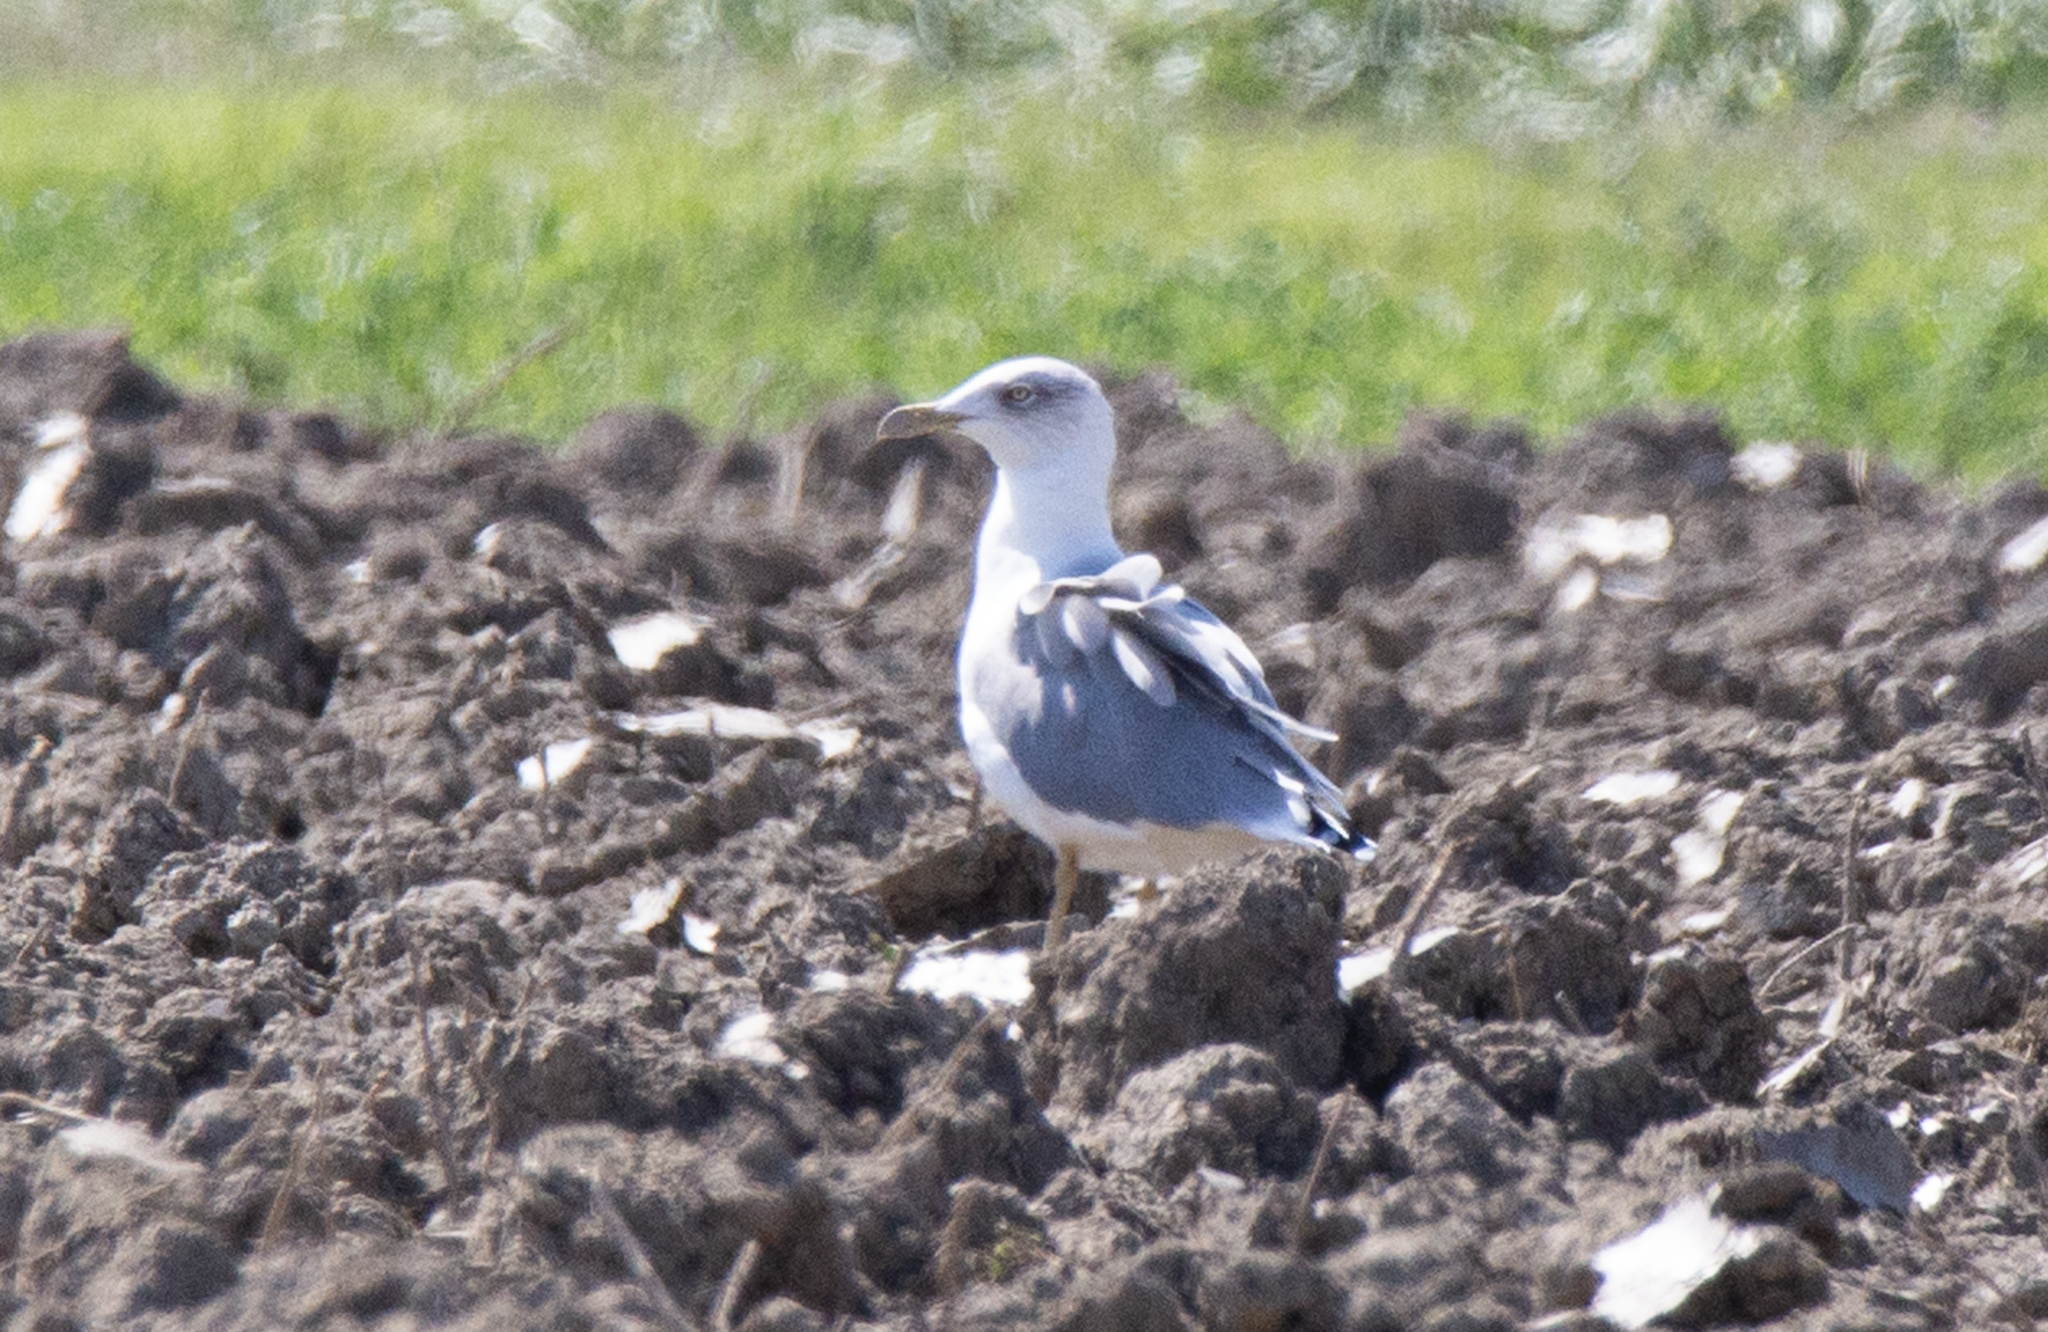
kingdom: Animalia
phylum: Chordata
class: Aves
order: Charadriiformes
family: Laridae
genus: Larus
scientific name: Larus michahellis
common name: Yellow-legged gull
